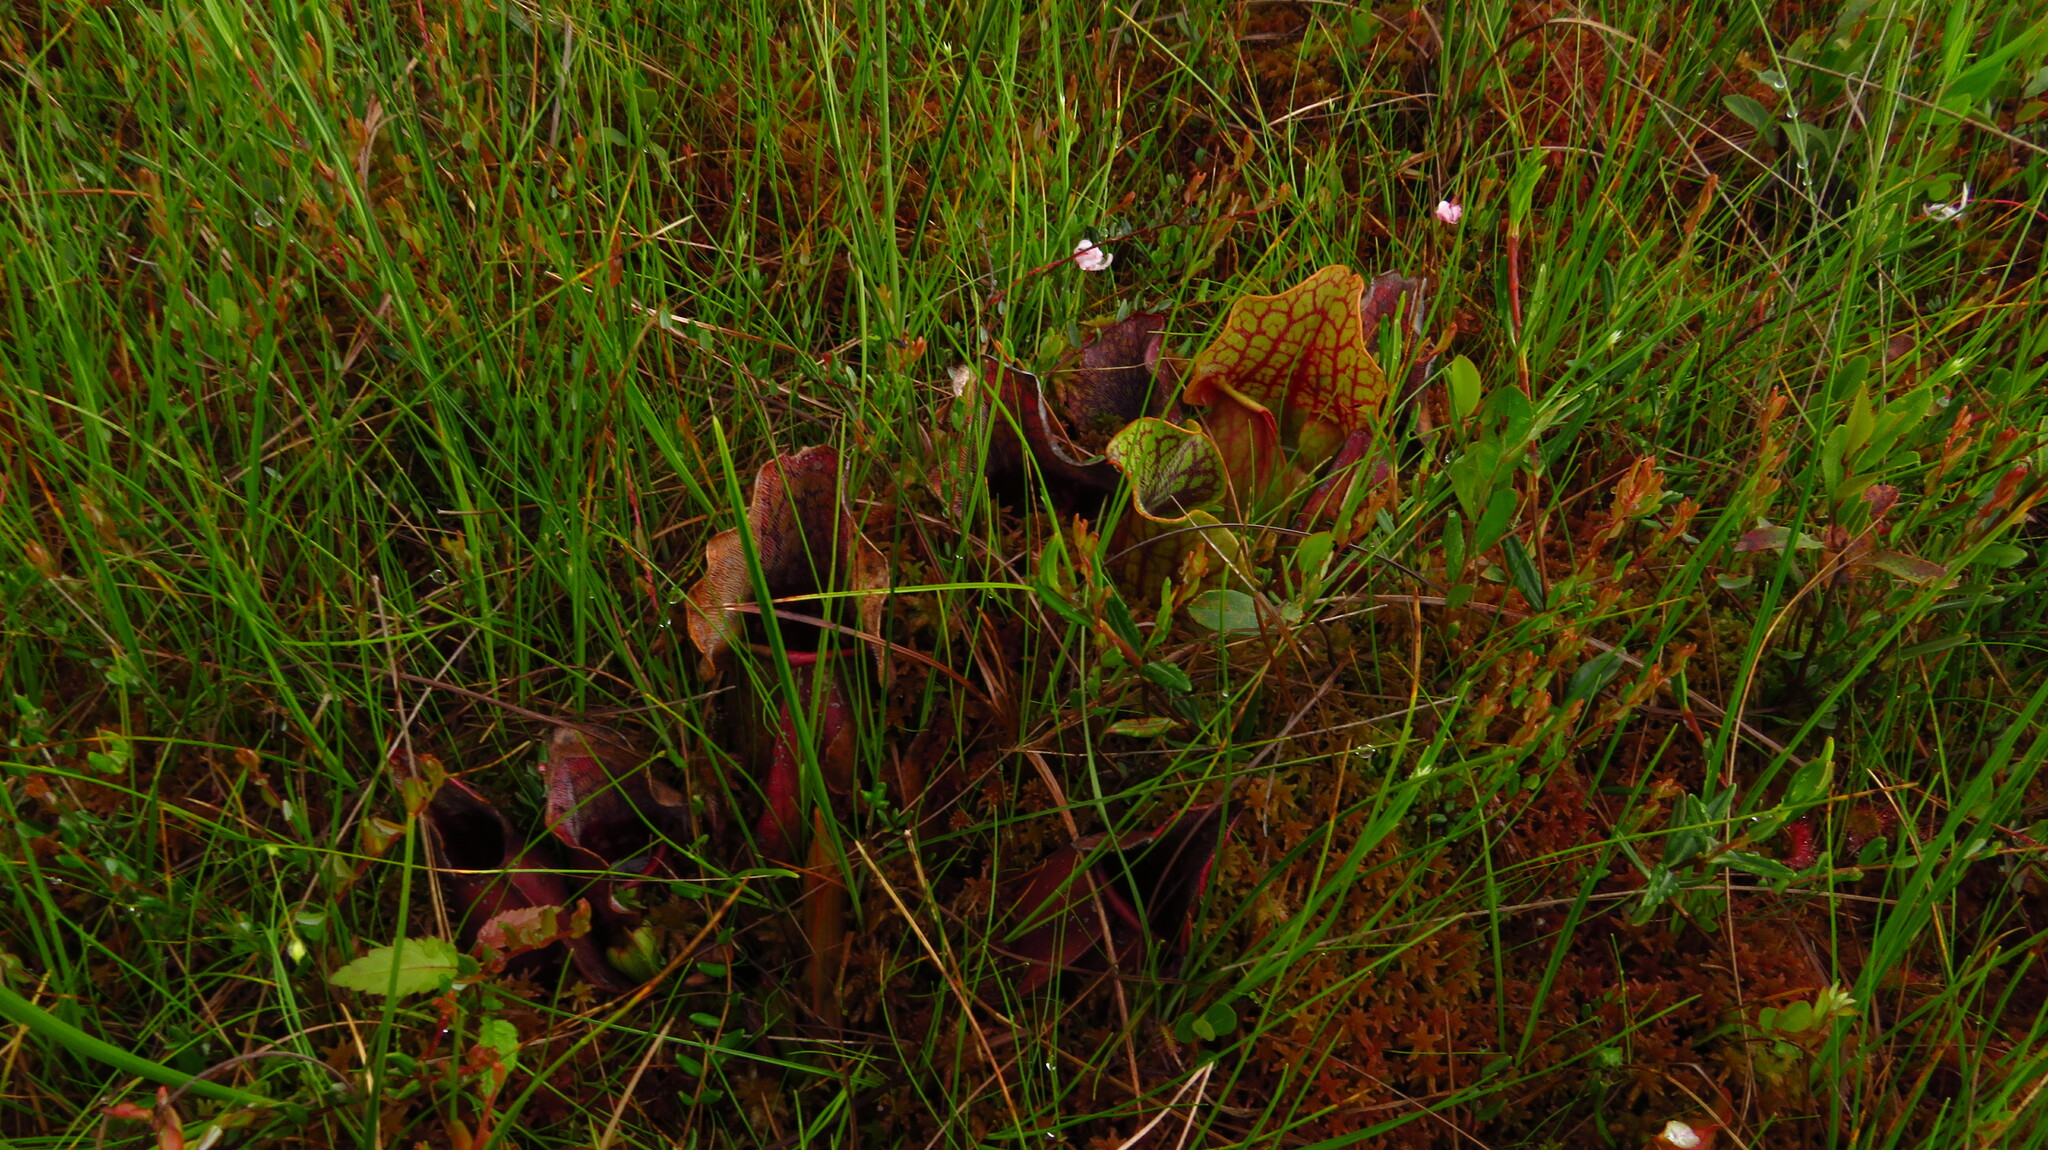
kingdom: Plantae
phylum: Tracheophyta
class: Magnoliopsida
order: Ericales
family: Sarraceniaceae
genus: Sarracenia
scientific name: Sarracenia purpurea
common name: Pitcherplant
